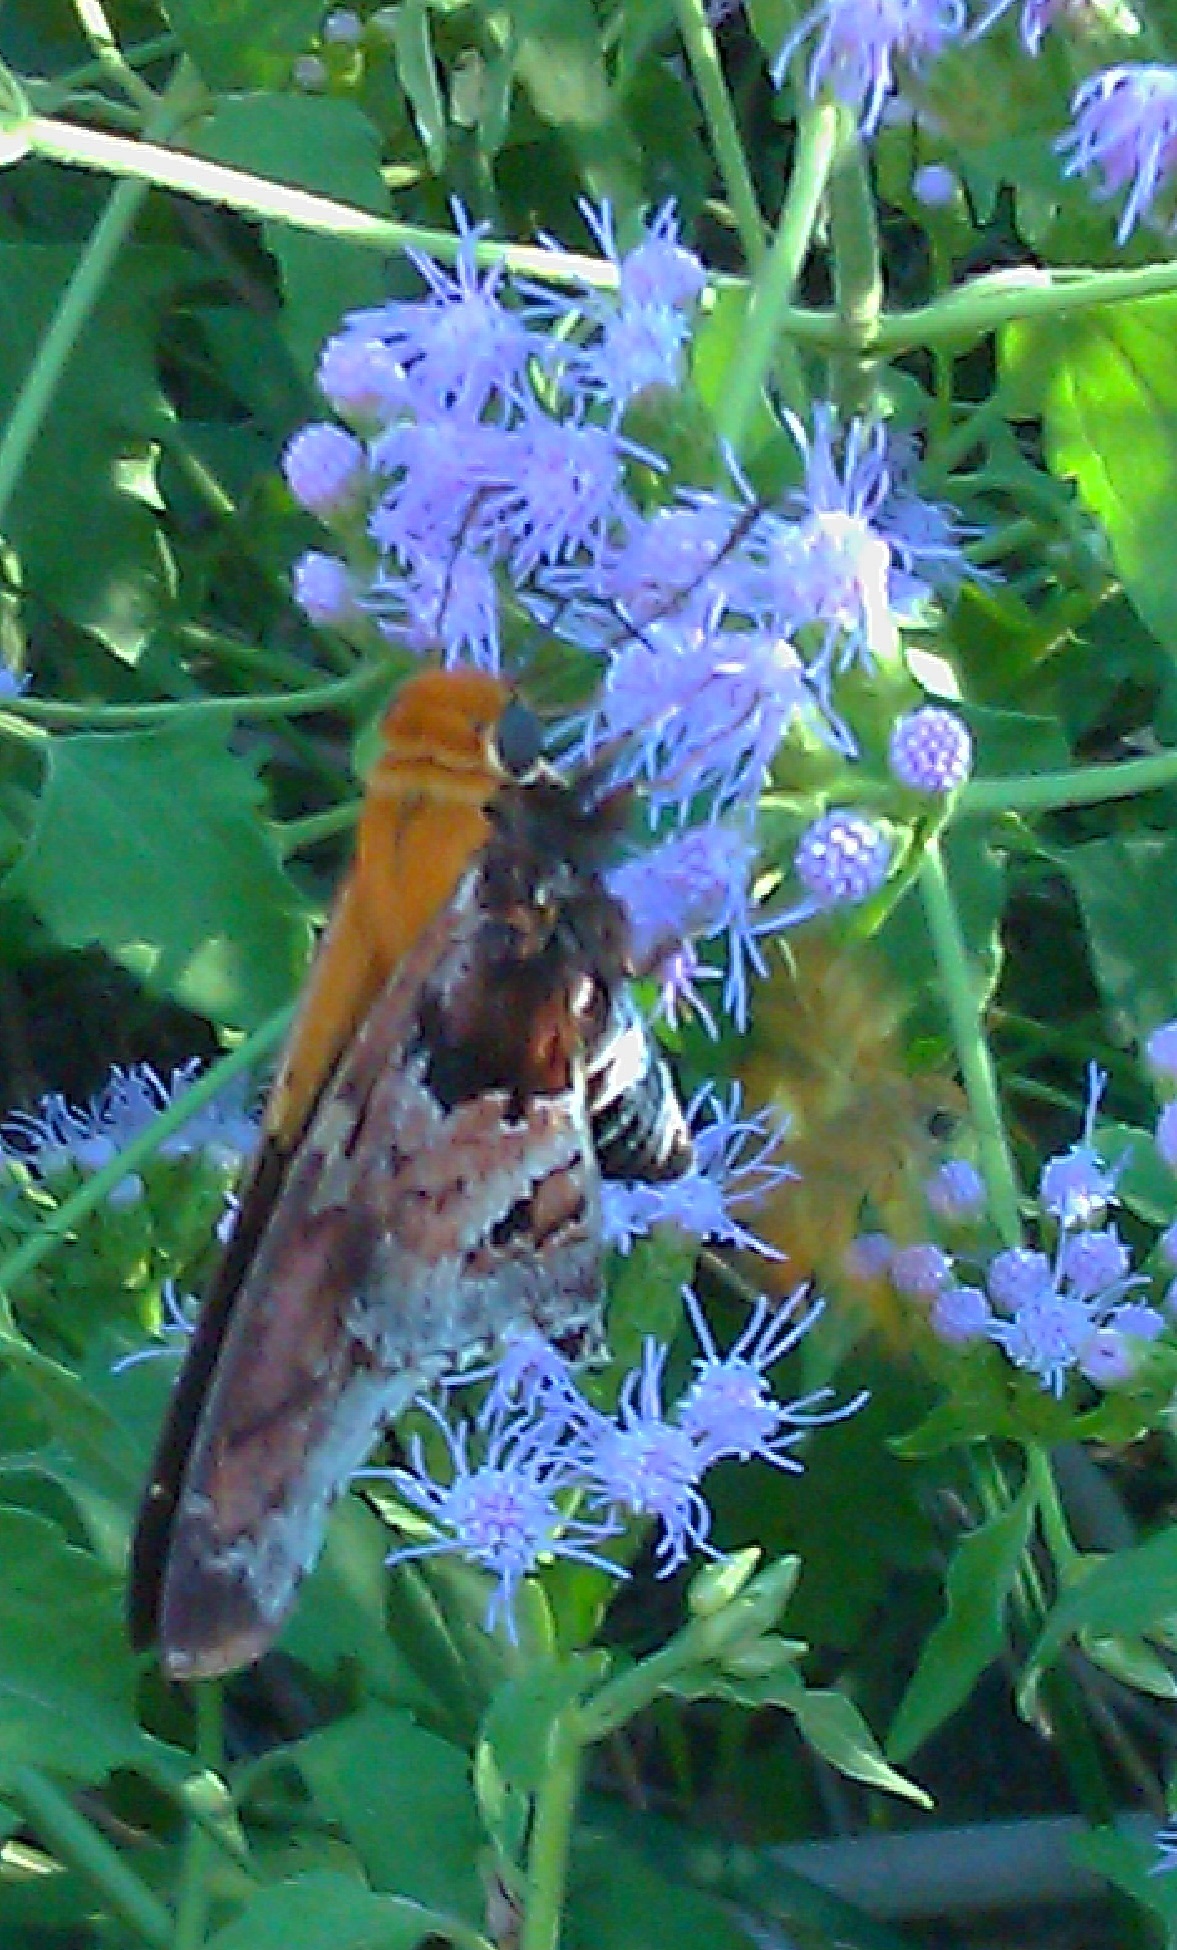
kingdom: Animalia
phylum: Arthropoda
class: Insecta
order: Lepidoptera
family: Hesperiidae
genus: Proteides
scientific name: Proteides mercurius
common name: Mercurial skipper
